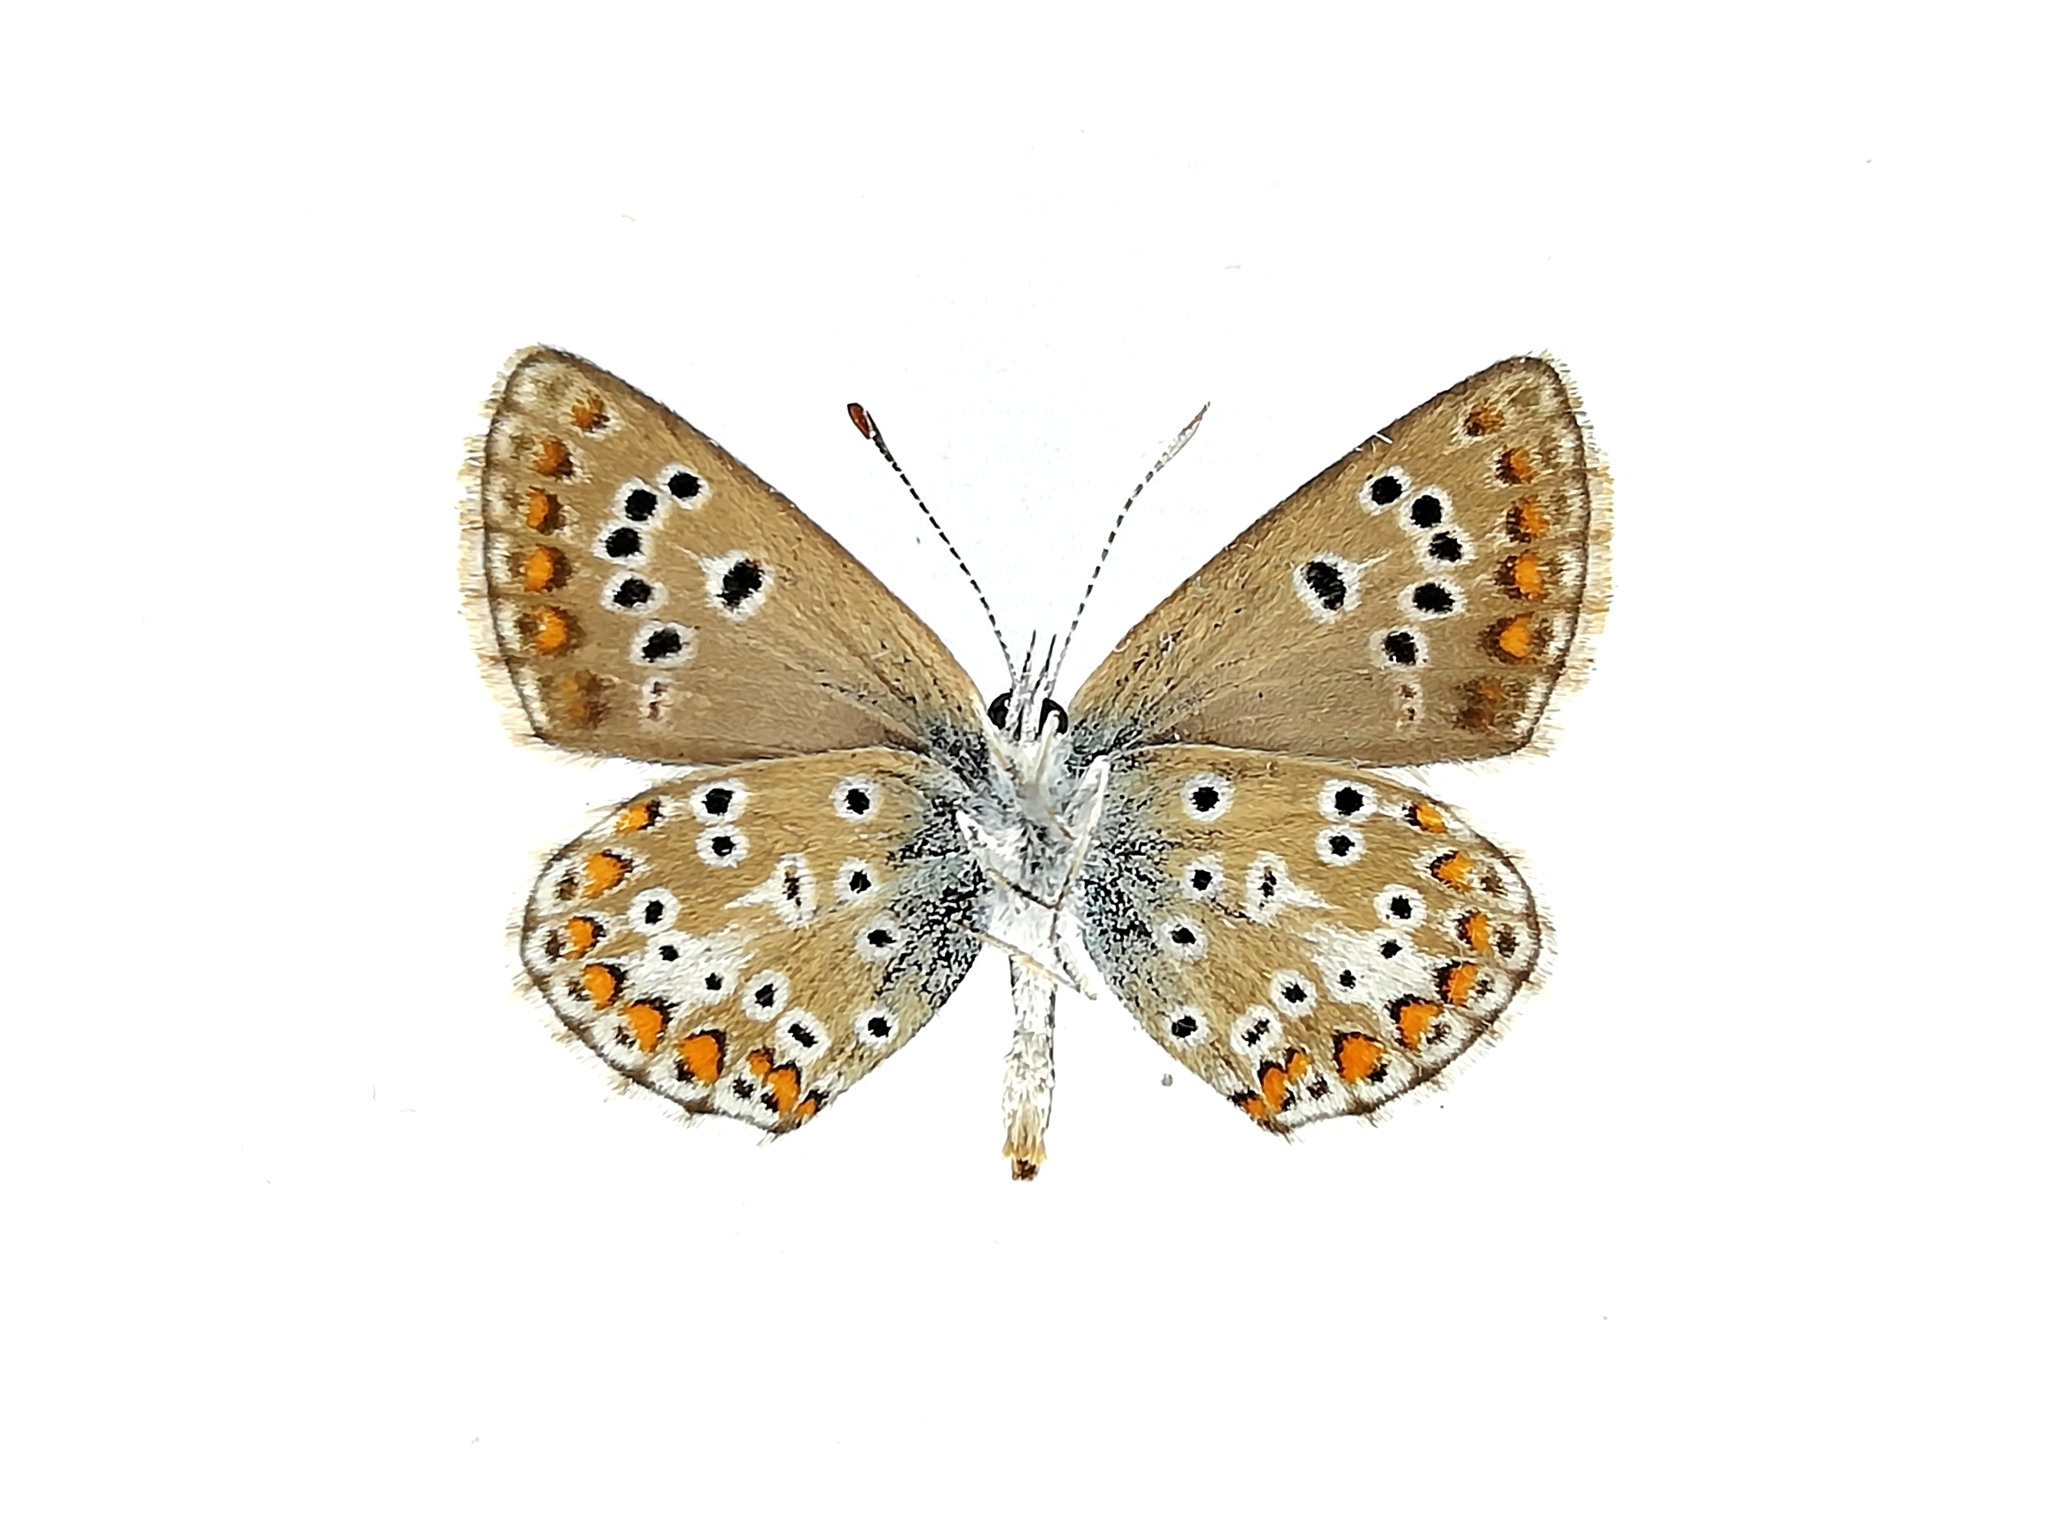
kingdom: Animalia
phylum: Arthropoda
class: Insecta
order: Lepidoptera
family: Lycaenidae
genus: Aricia
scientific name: Aricia artaxerxes
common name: Northern brown argus
